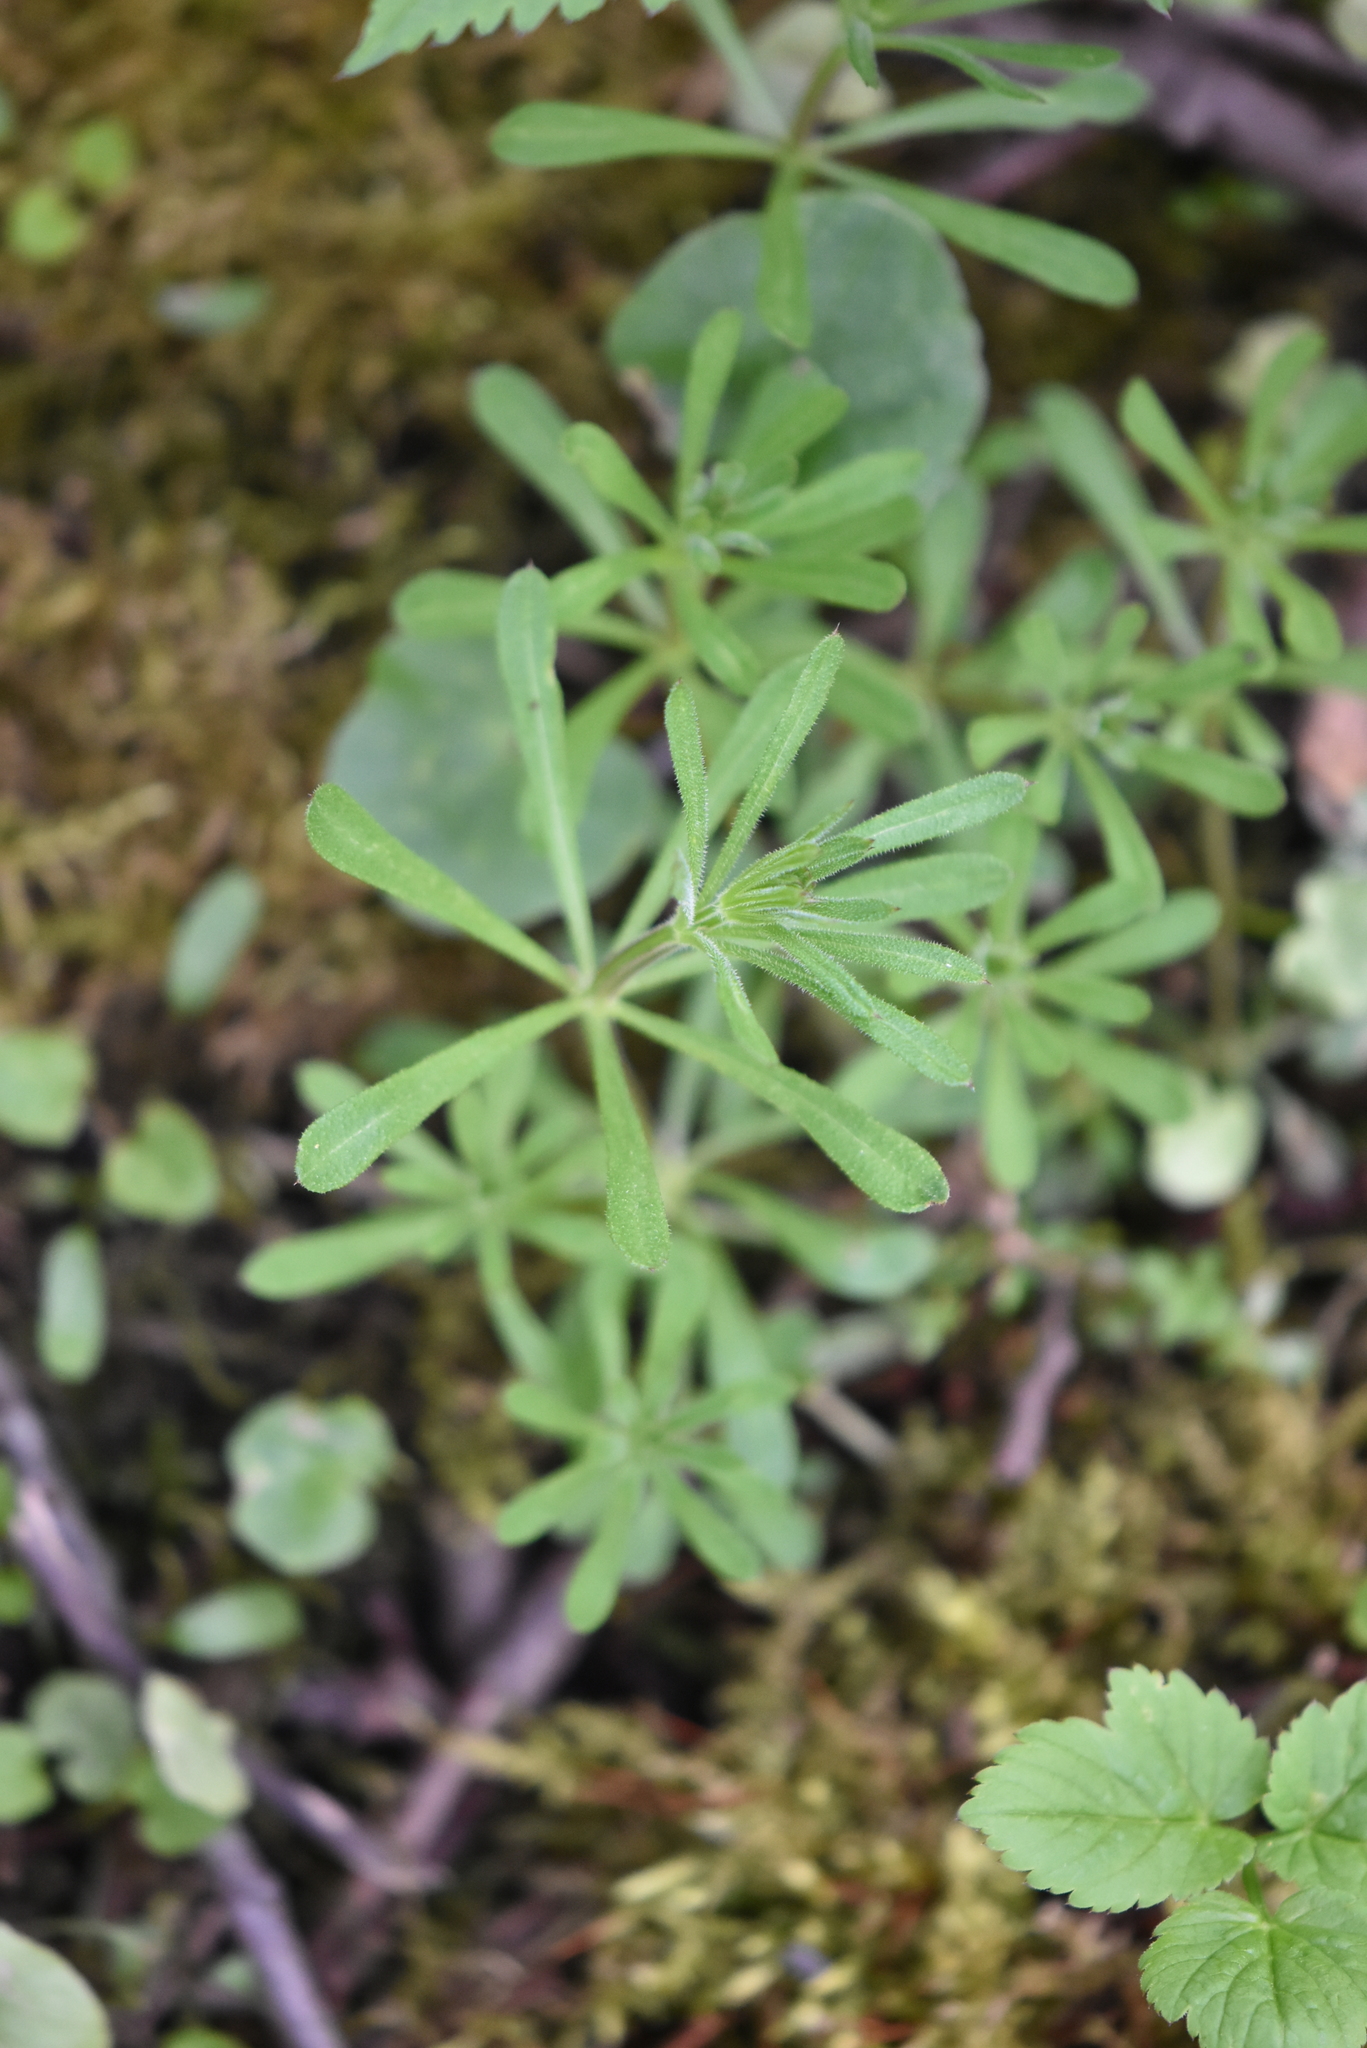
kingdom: Plantae
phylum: Tracheophyta
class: Magnoliopsida
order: Gentianales
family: Rubiaceae
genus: Galium
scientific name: Galium aparine
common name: Cleavers
